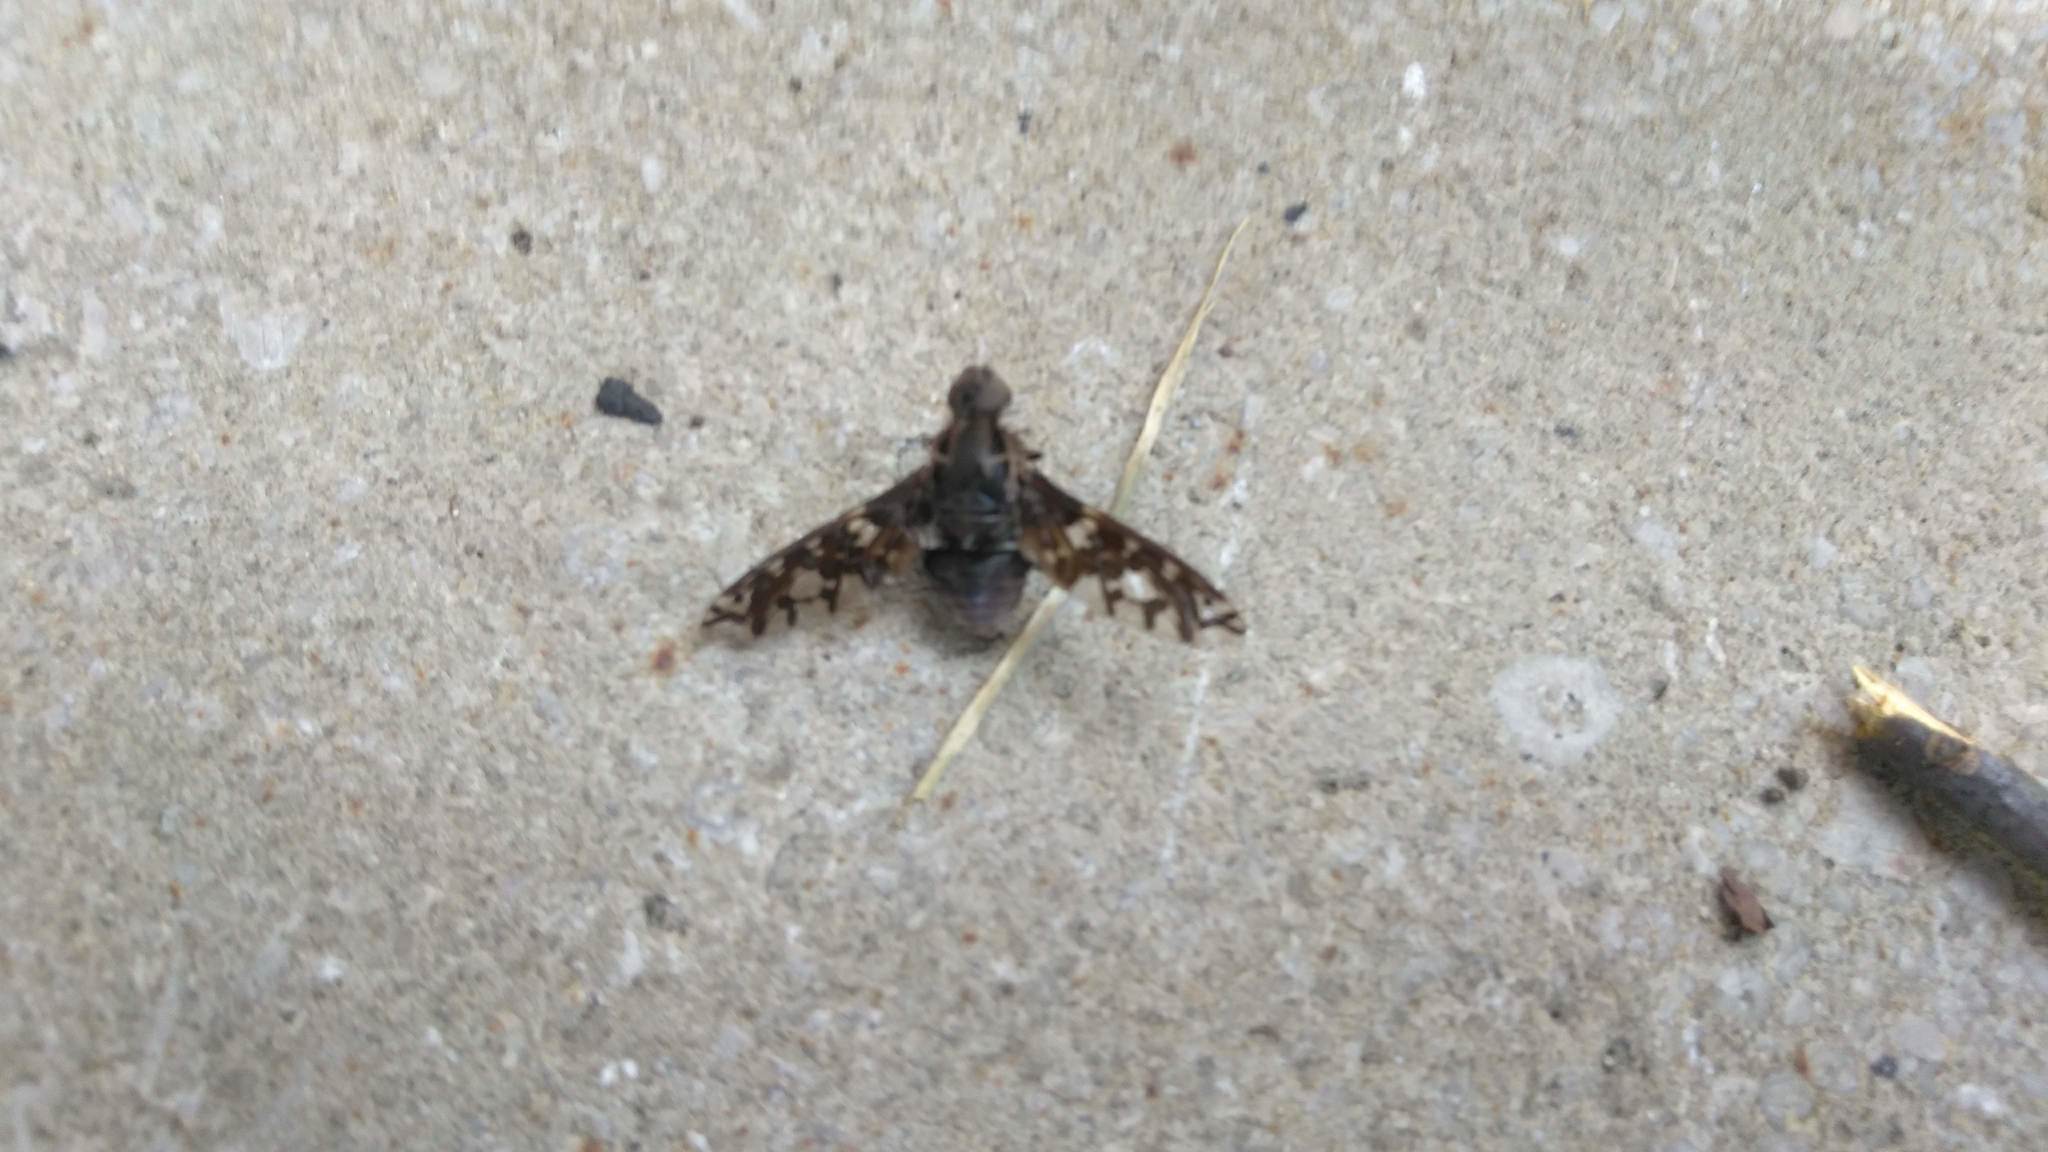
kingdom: Animalia
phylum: Arthropoda
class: Insecta
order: Diptera
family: Bombyliidae
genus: Xenox
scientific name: Xenox tigrinus
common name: Tiger bee fly
